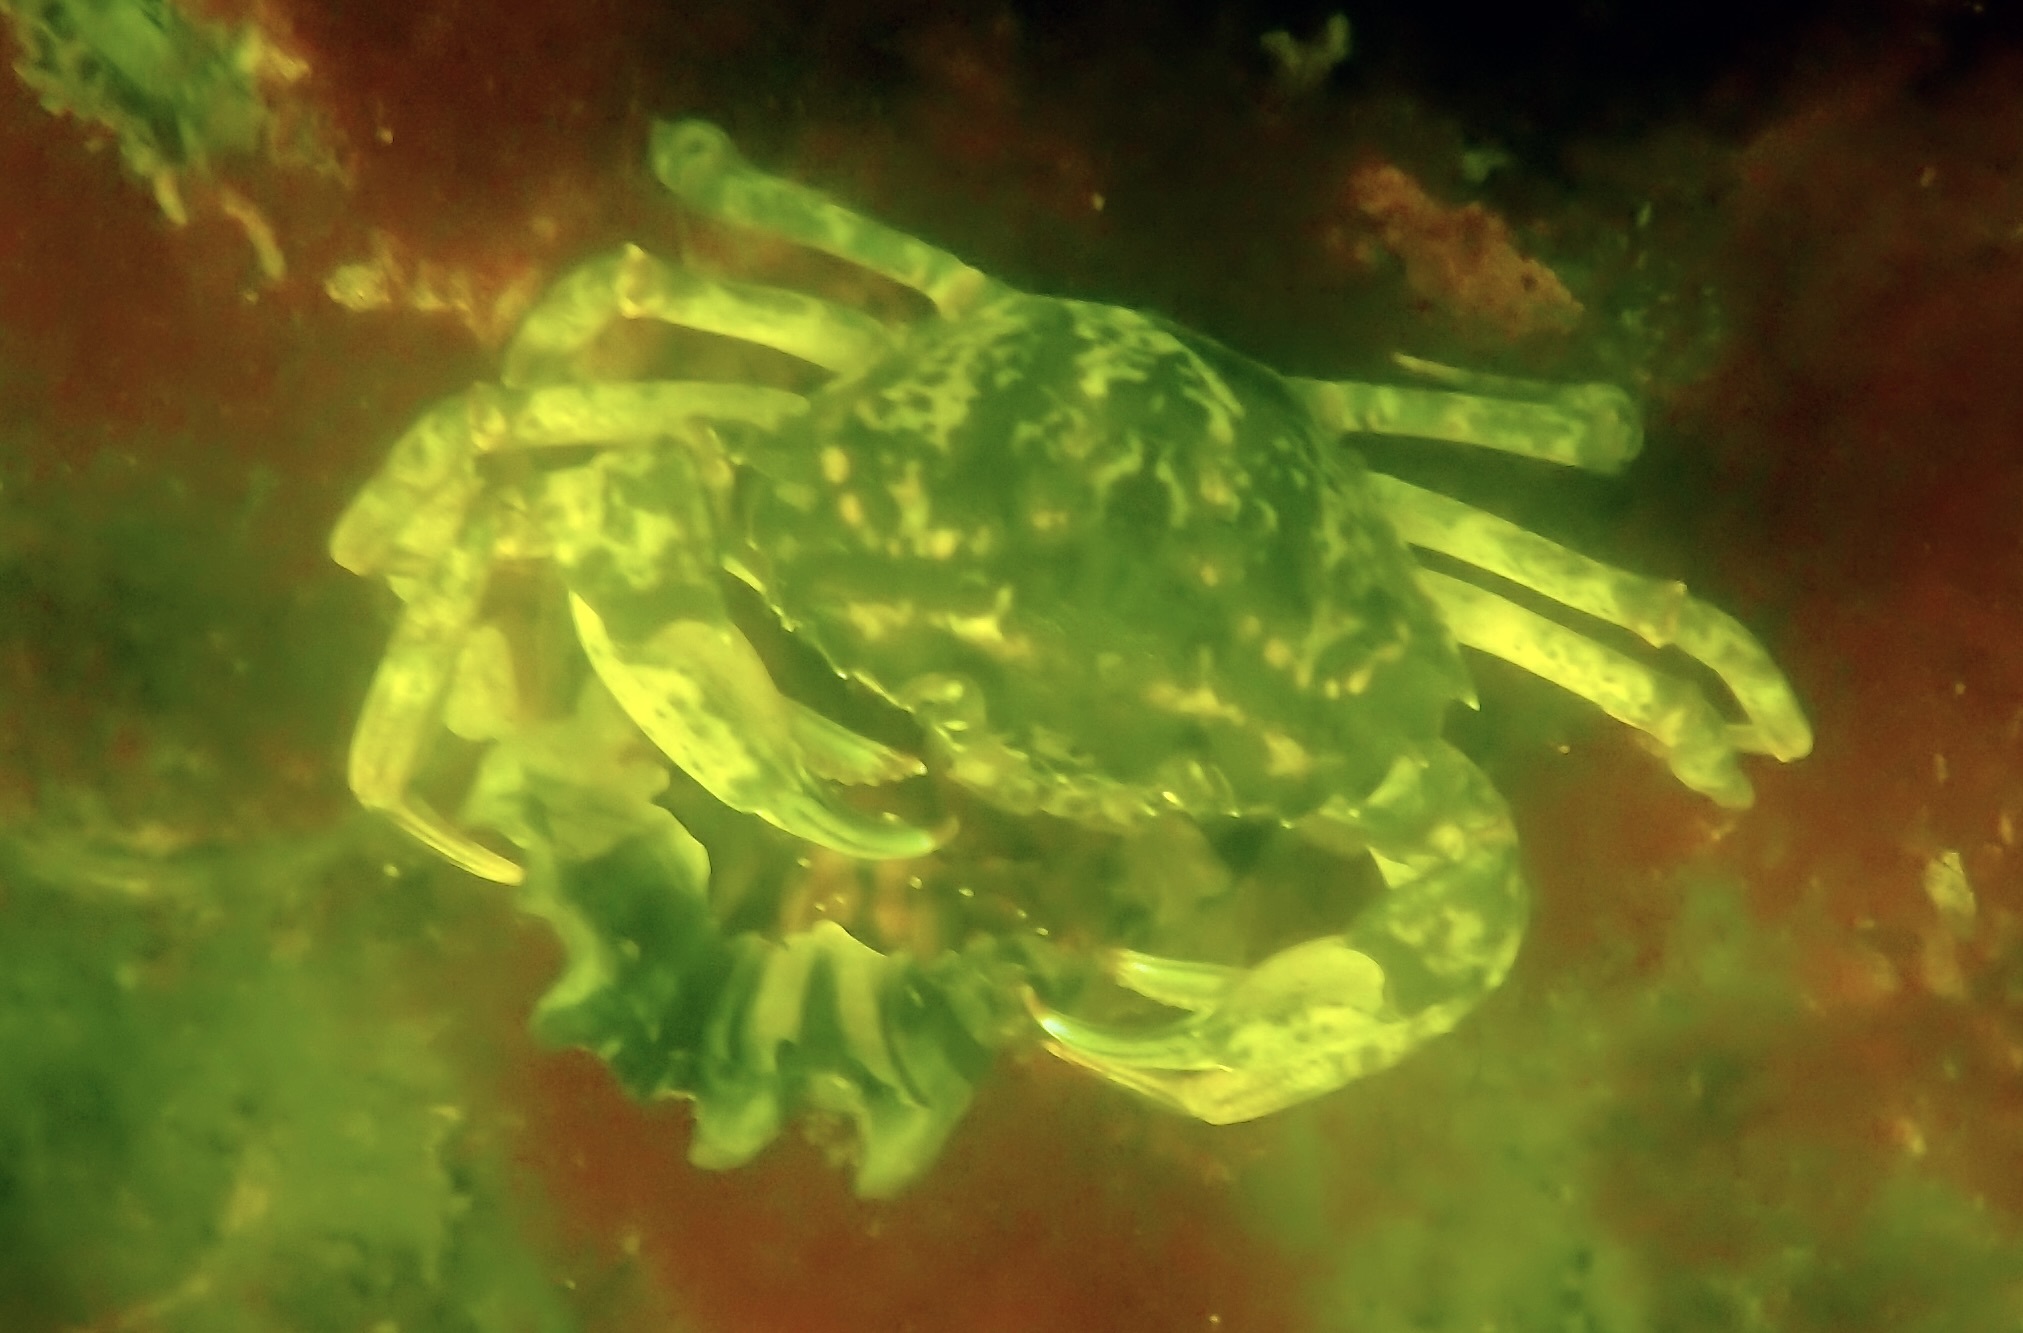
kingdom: Animalia
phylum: Arthropoda
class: Malacostraca
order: Decapoda
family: Carcinidae
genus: Carcinus
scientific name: Carcinus maenas
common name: European green crab
